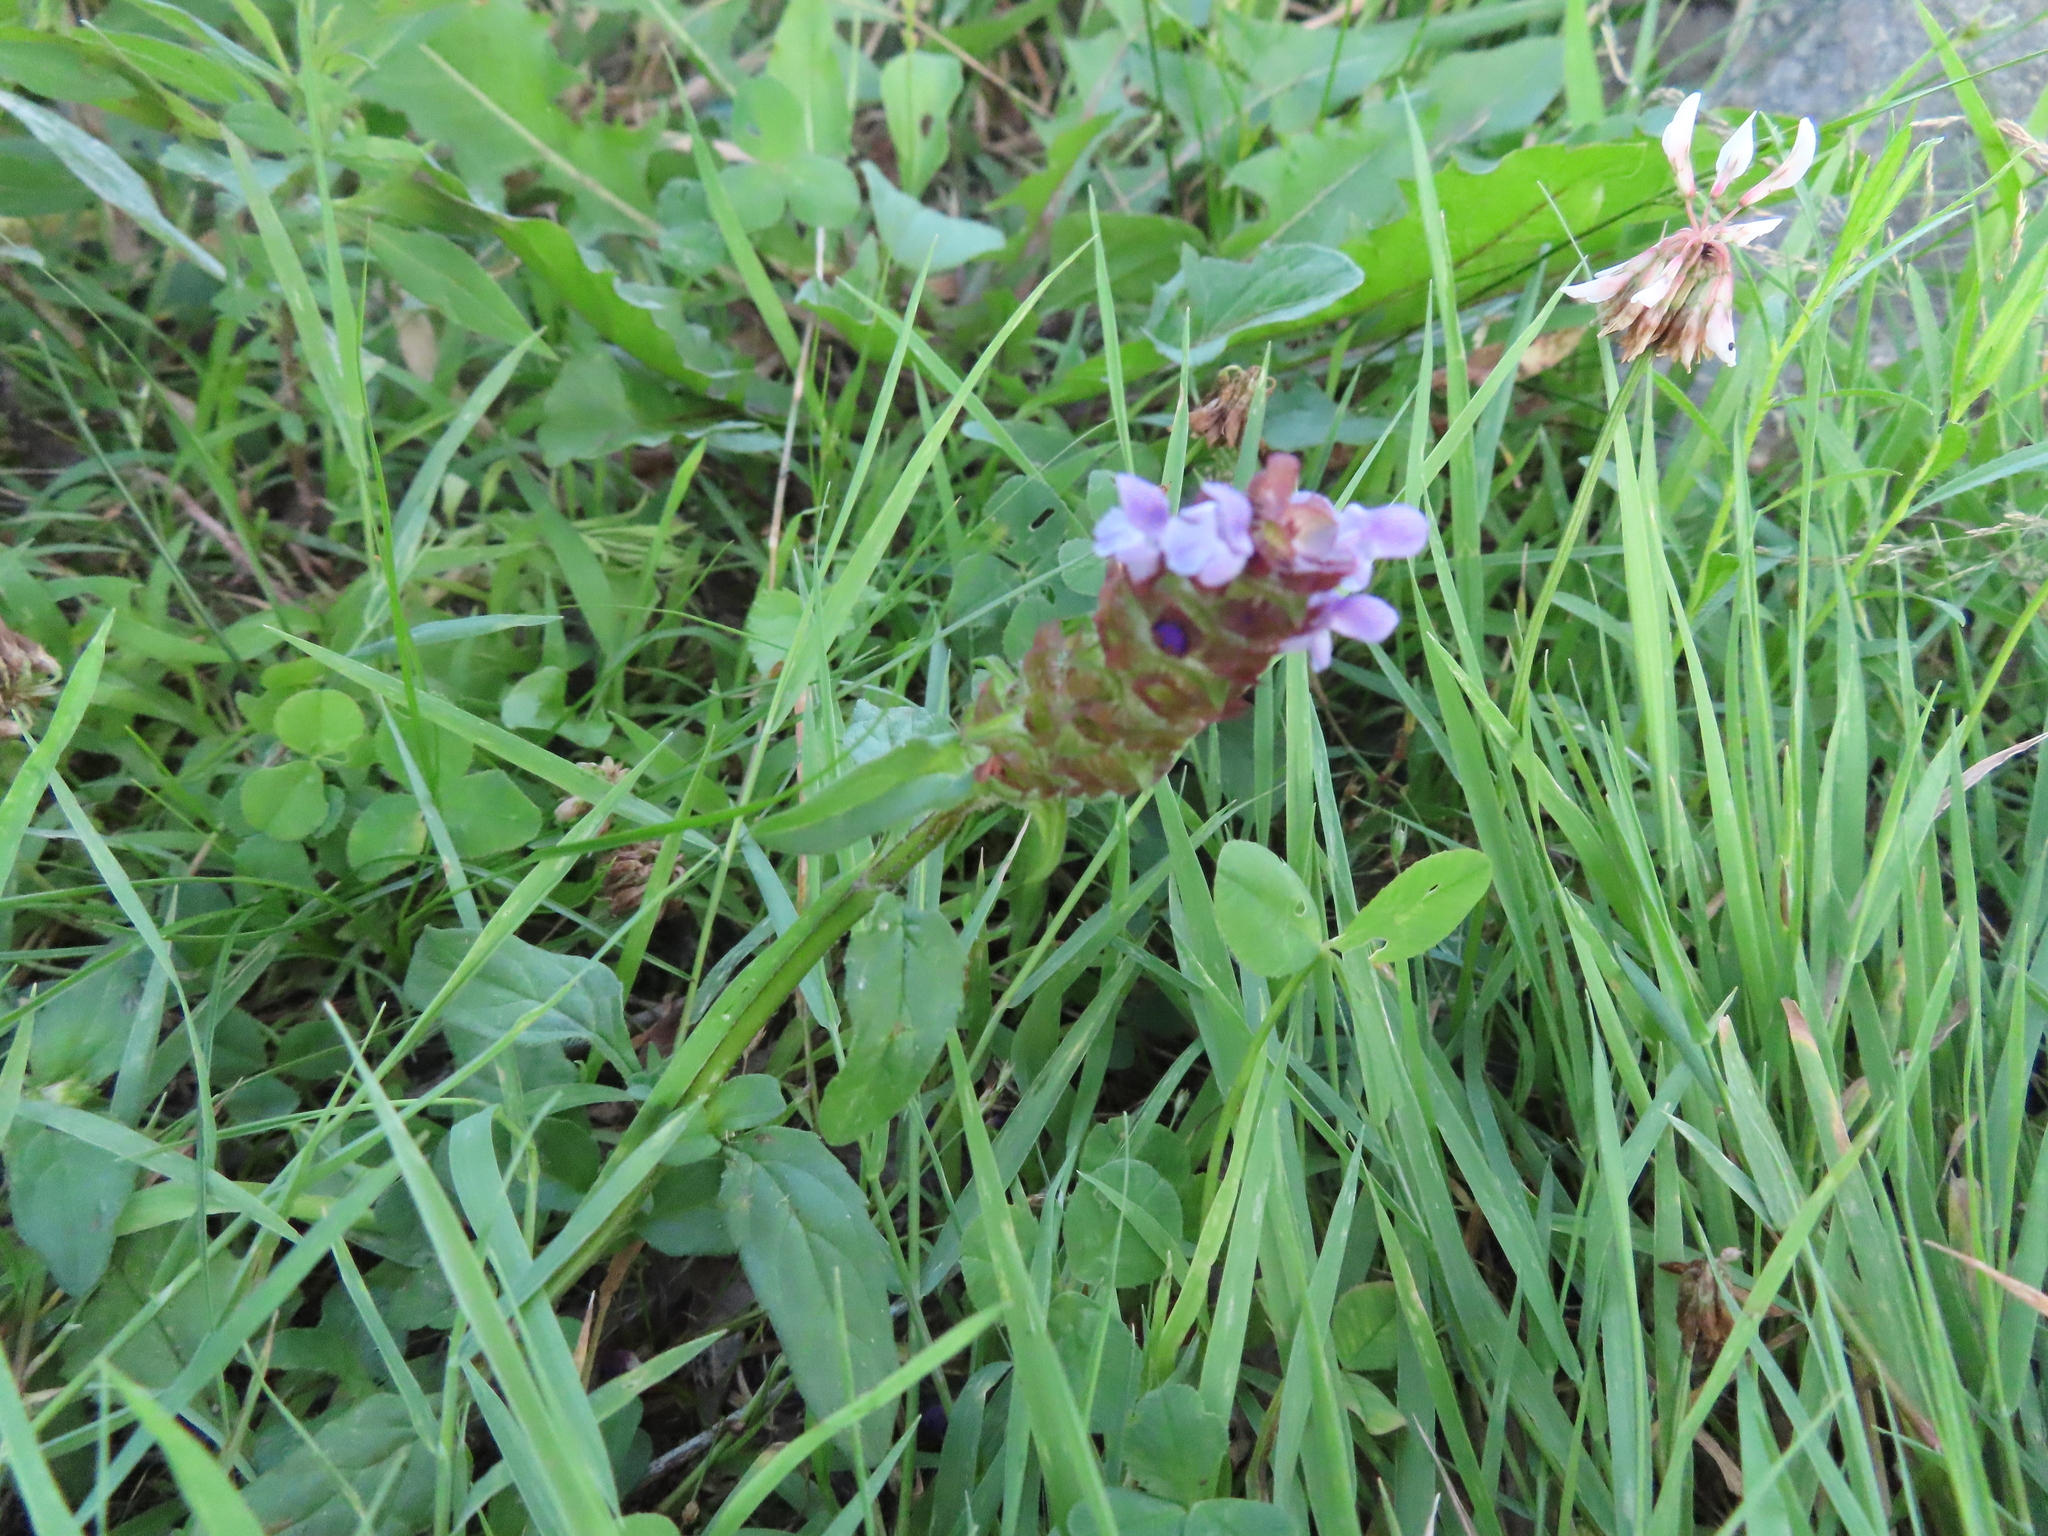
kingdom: Plantae
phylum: Tracheophyta
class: Magnoliopsida
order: Lamiales
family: Lamiaceae
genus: Prunella
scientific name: Prunella vulgaris
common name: Heal-all
